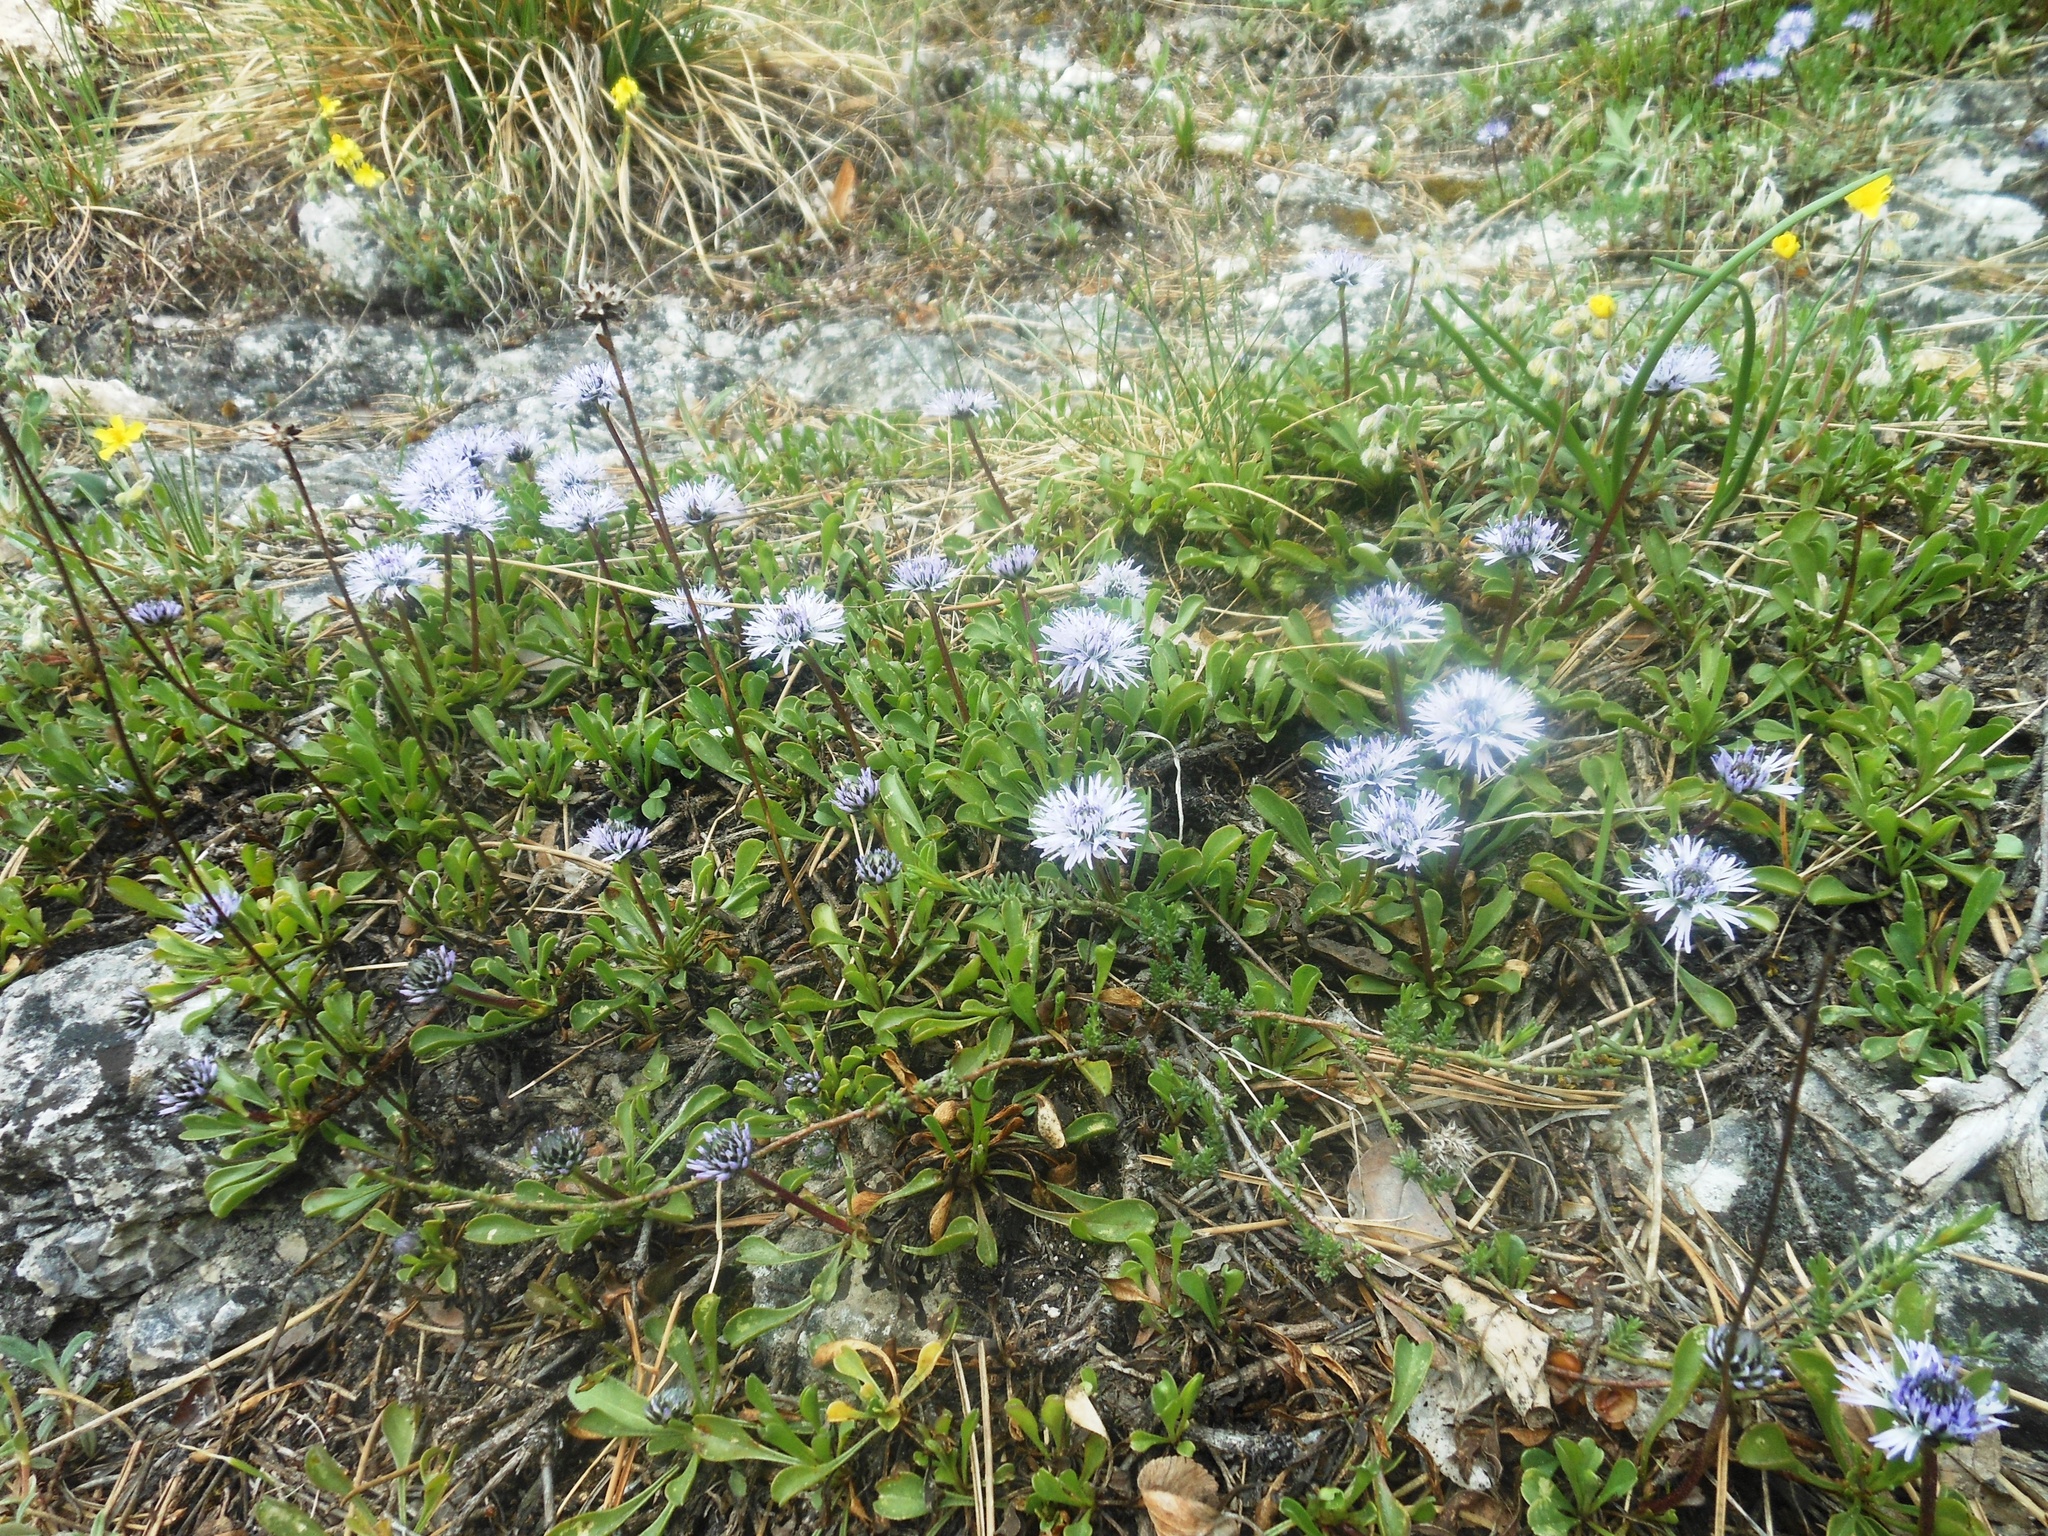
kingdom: Plantae
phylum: Tracheophyta
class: Magnoliopsida
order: Lamiales
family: Plantaginaceae
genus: Globularia
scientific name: Globularia cordifolia
